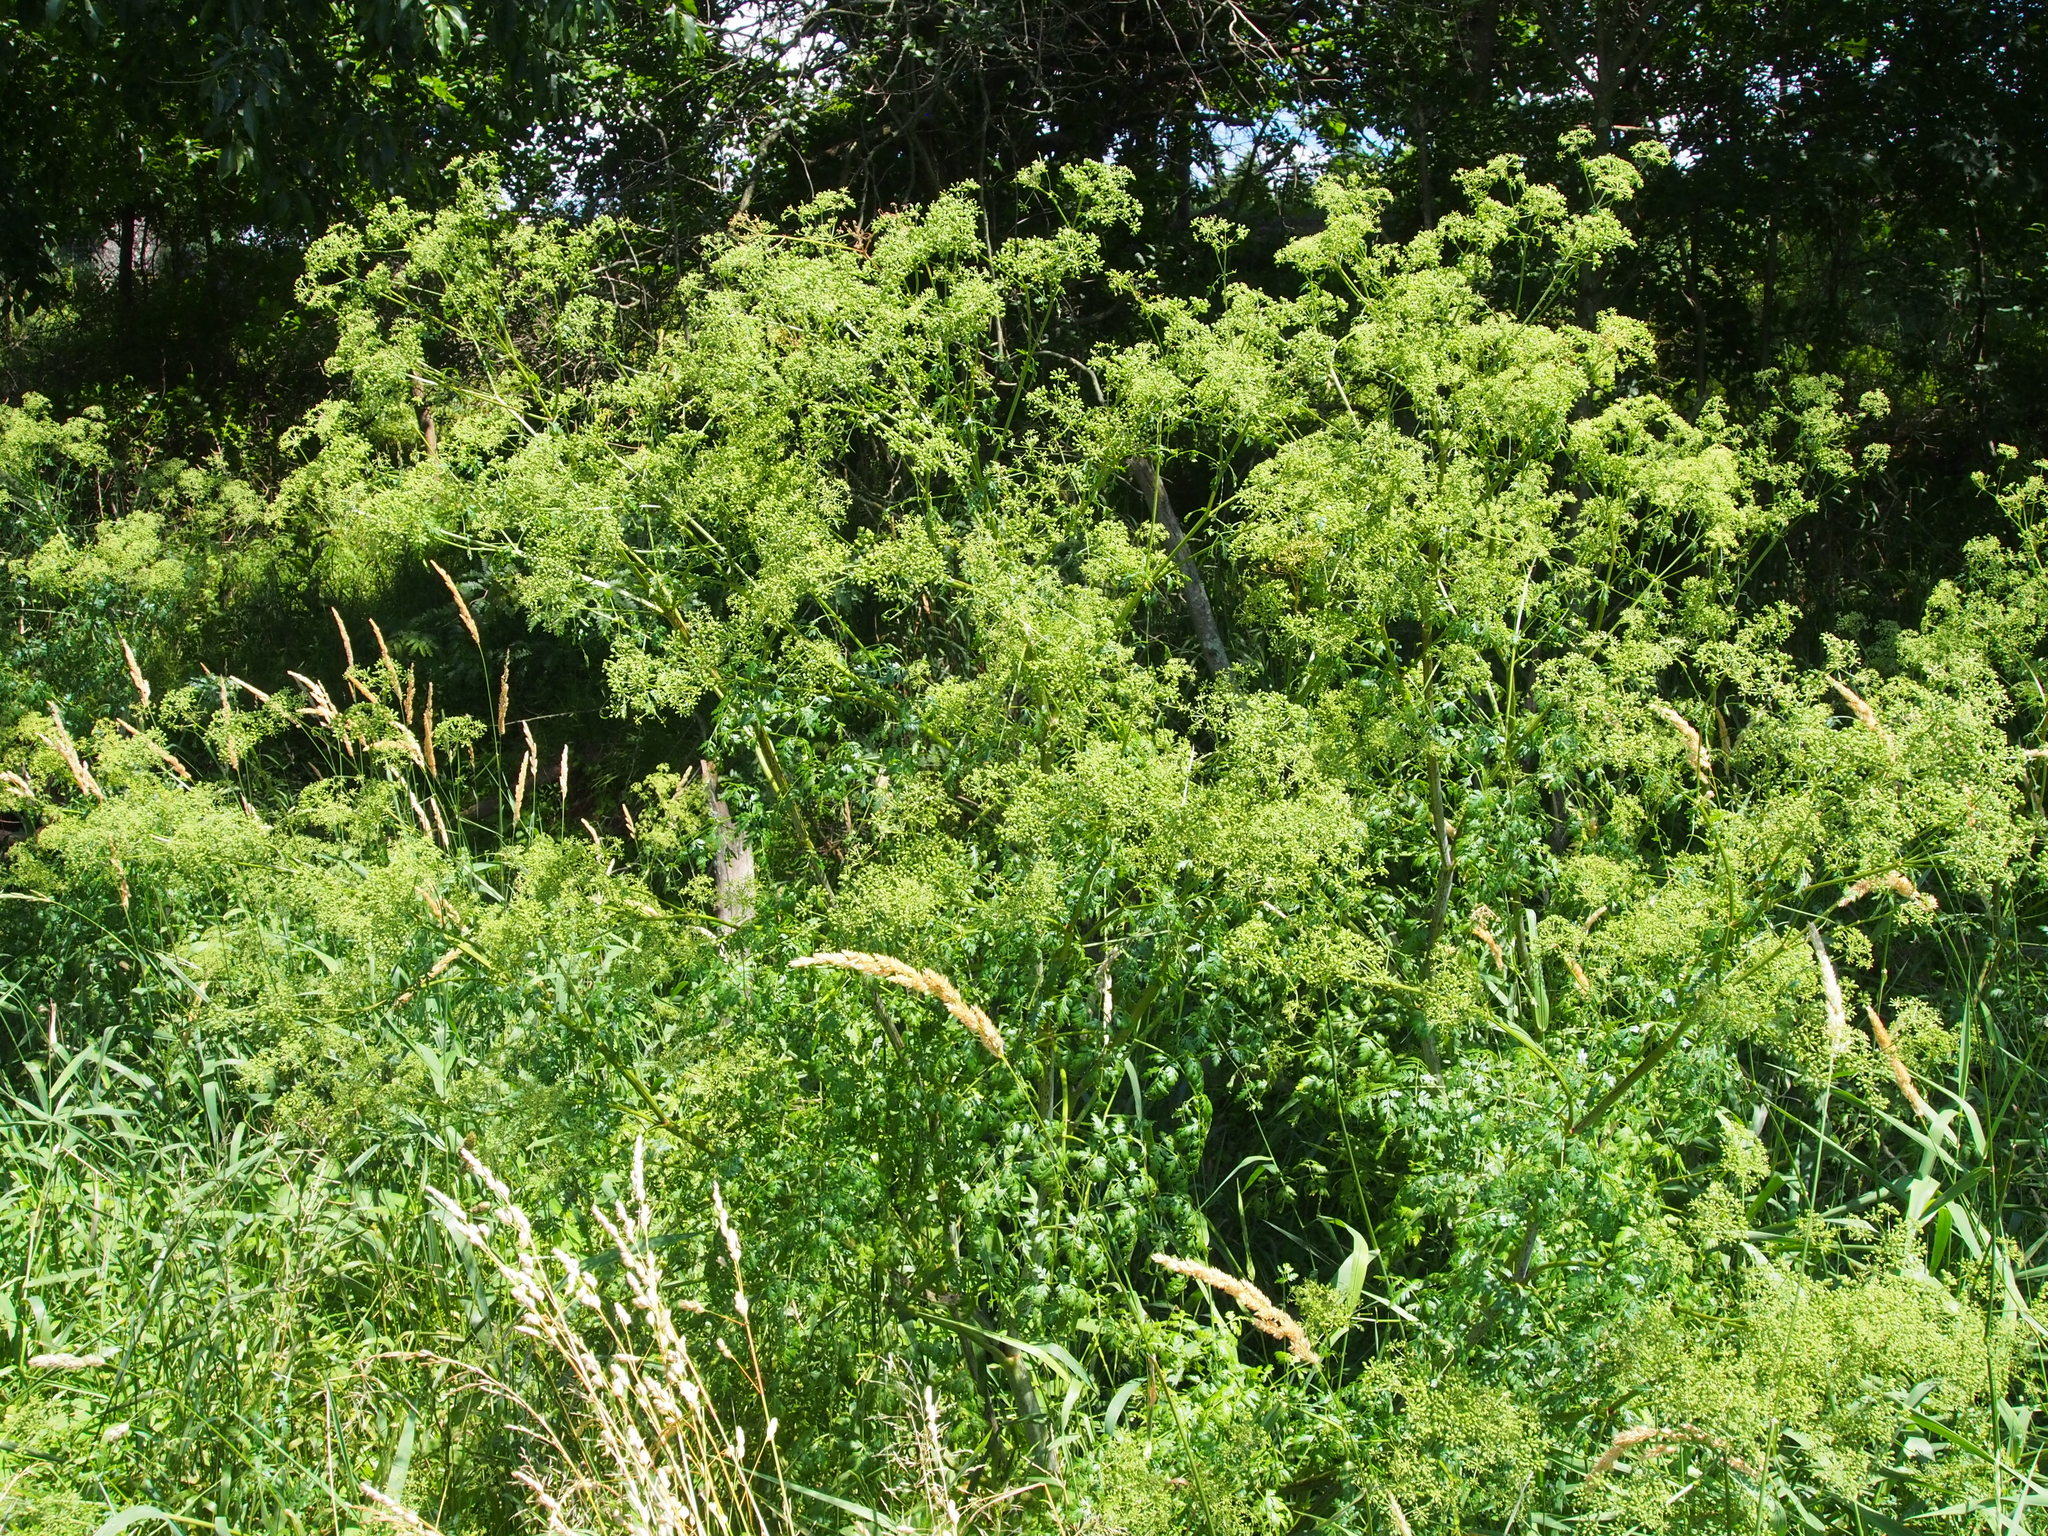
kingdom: Plantae
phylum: Tracheophyta
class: Magnoliopsida
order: Apiales
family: Apiaceae
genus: Conium
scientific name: Conium maculatum
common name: Hemlock
